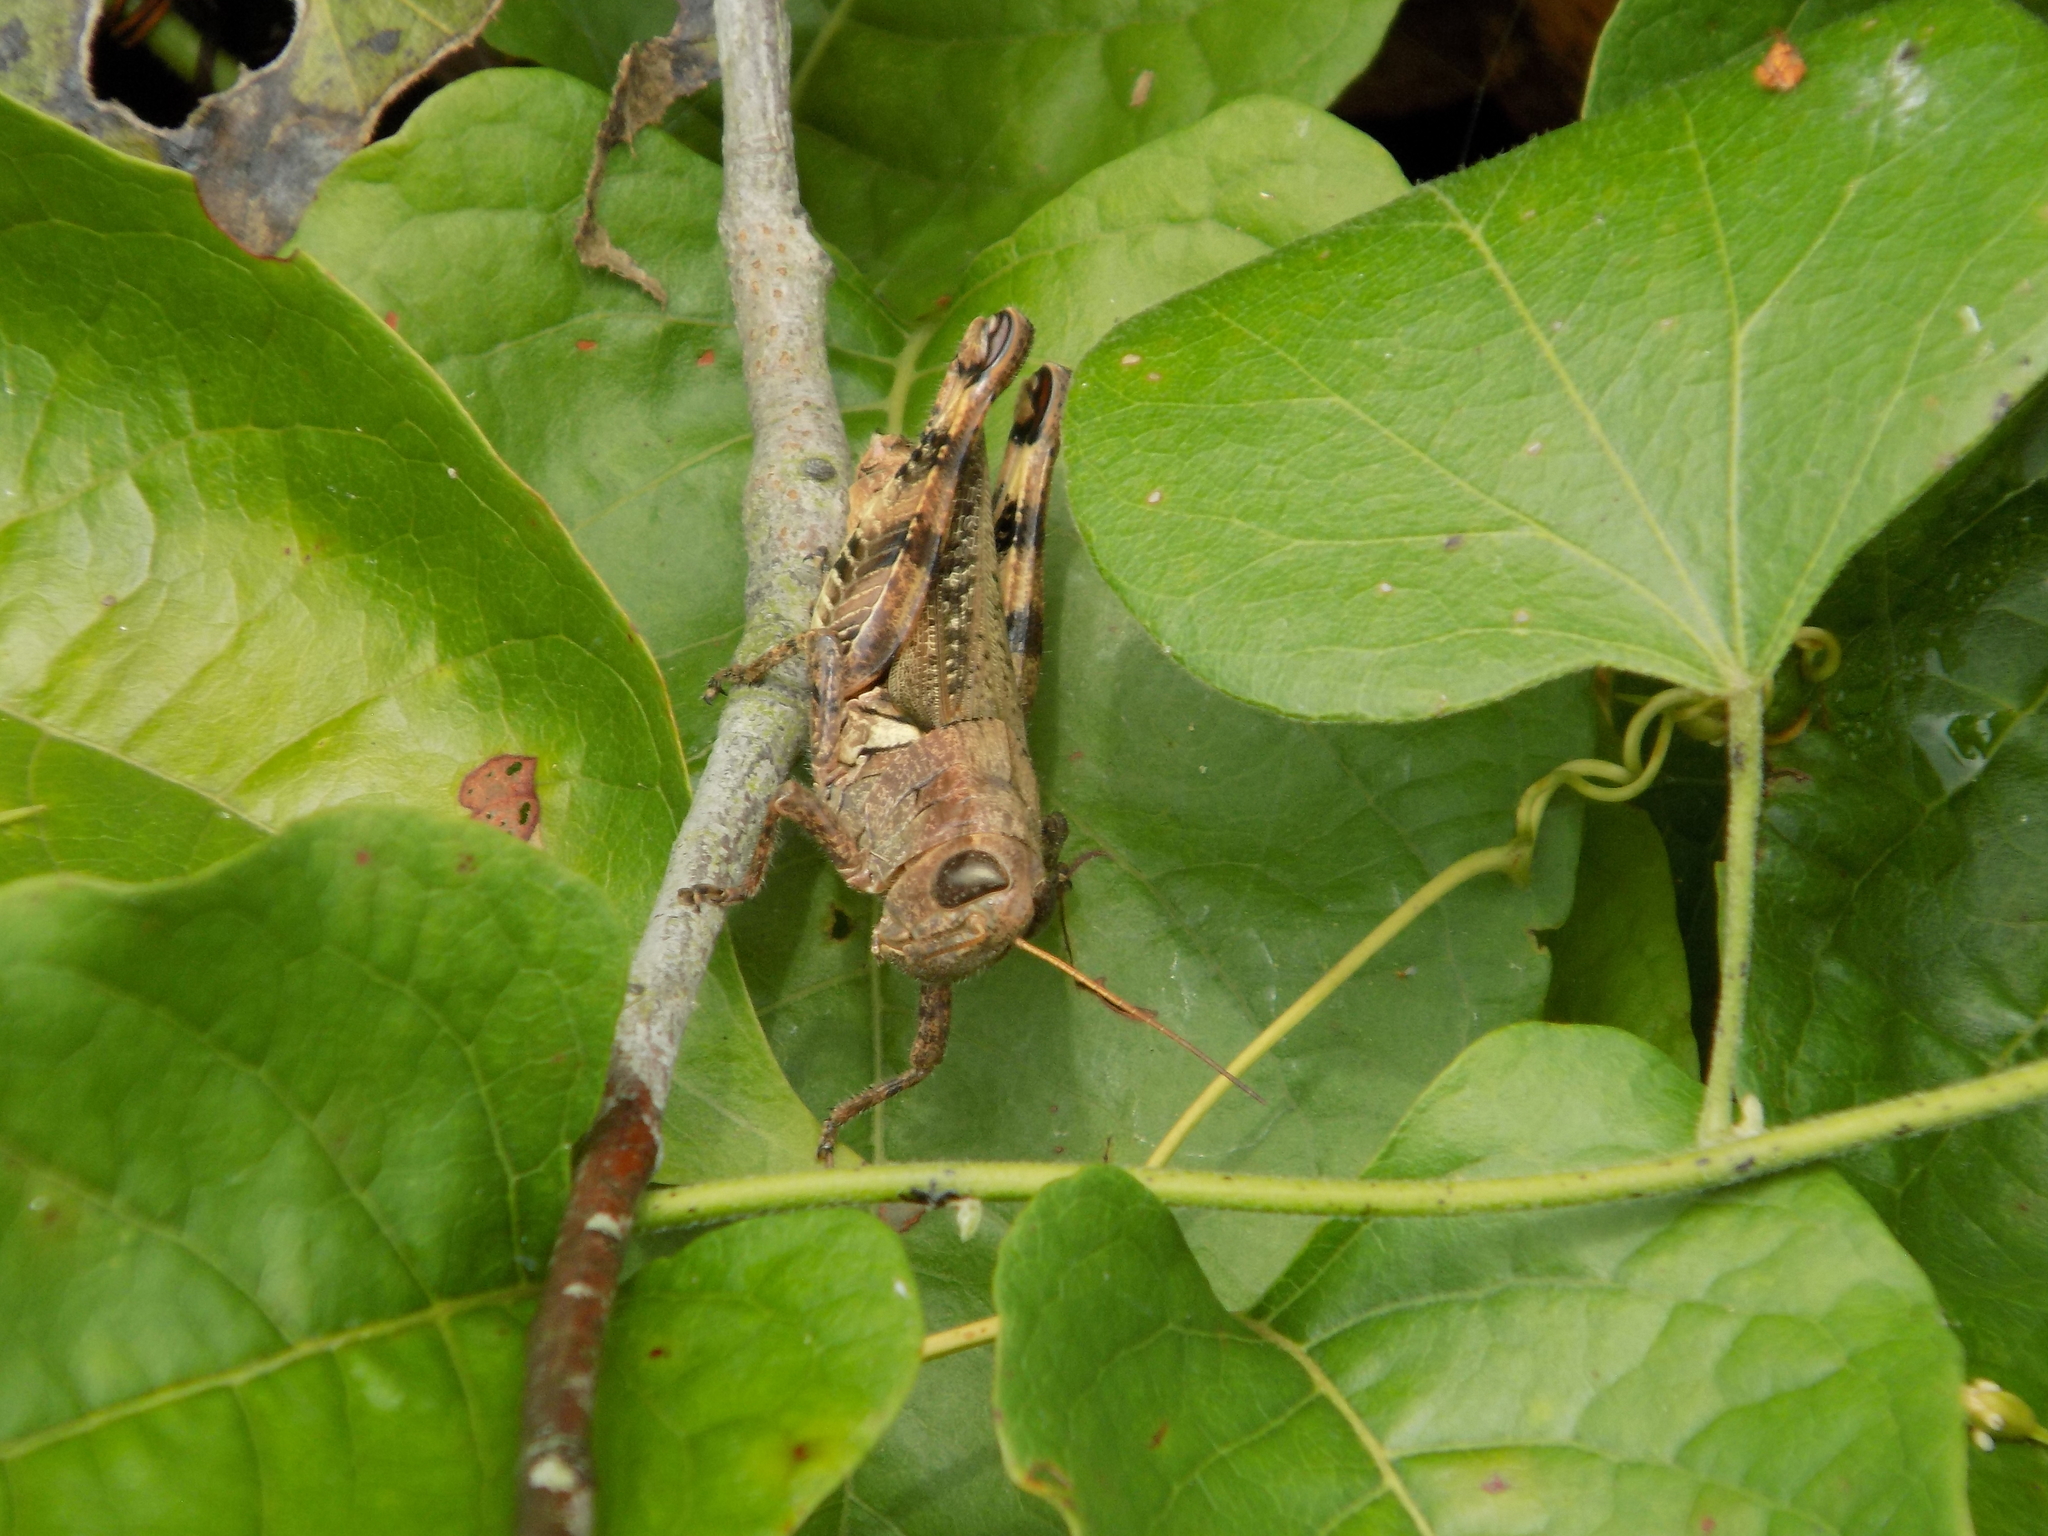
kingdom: Animalia
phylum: Arthropoda
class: Insecta
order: Orthoptera
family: Acrididae
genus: Melanoplus
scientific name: Melanoplus ponderosus
